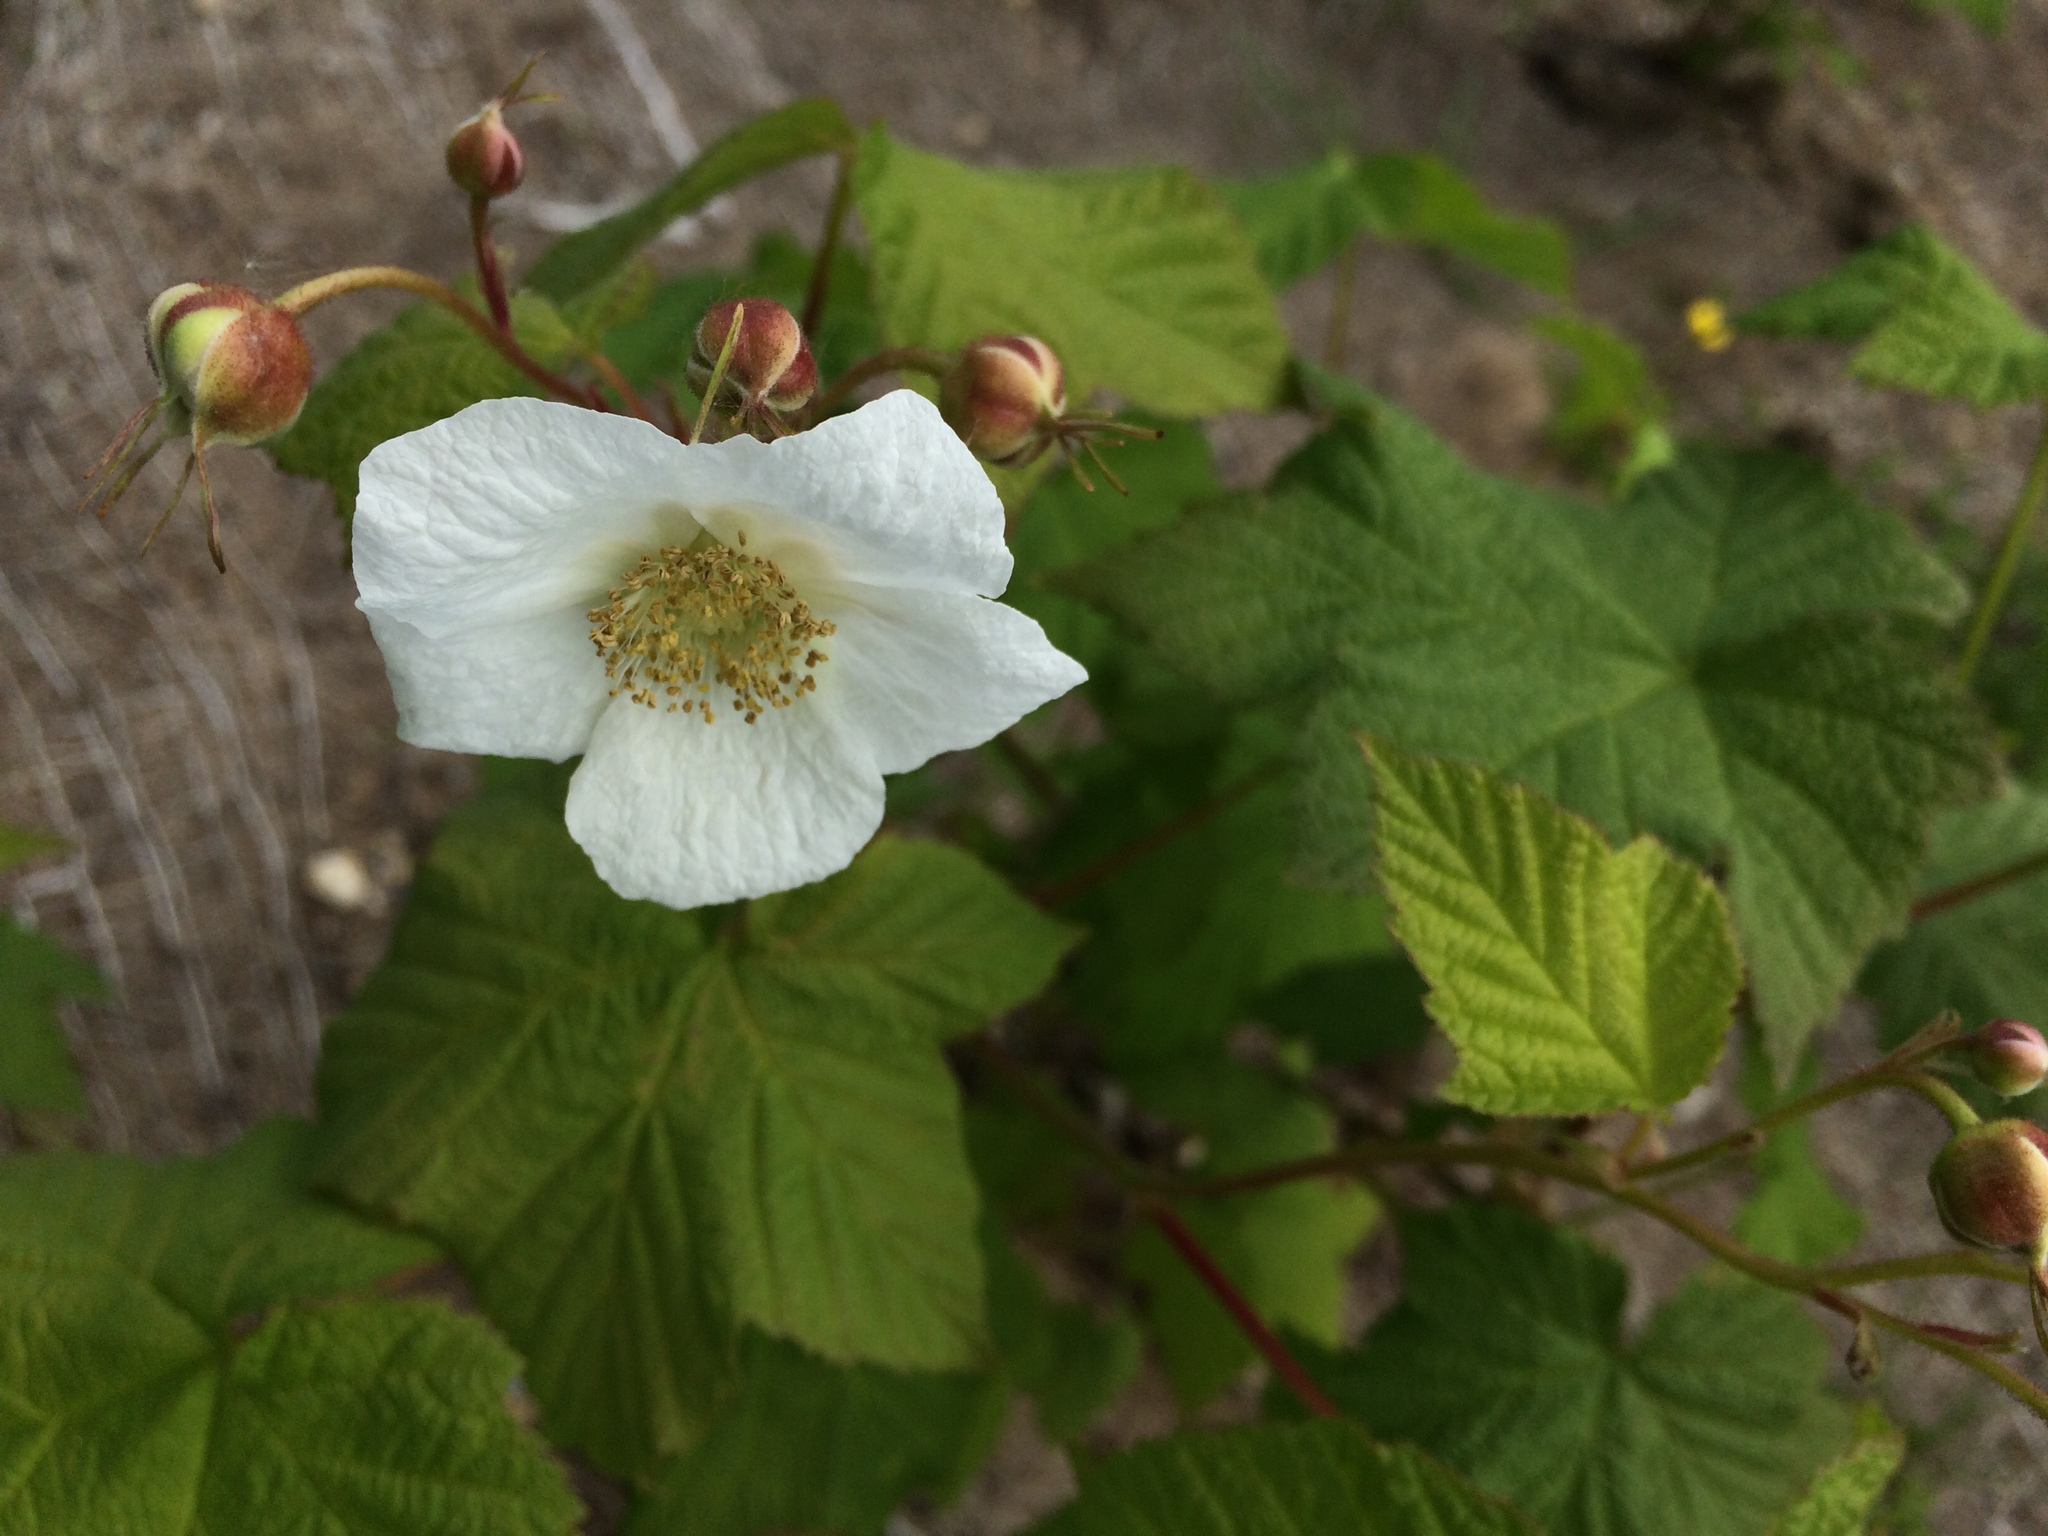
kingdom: Plantae
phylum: Tracheophyta
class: Magnoliopsida
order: Rosales
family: Rosaceae
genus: Rubus
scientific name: Rubus parviflorus
